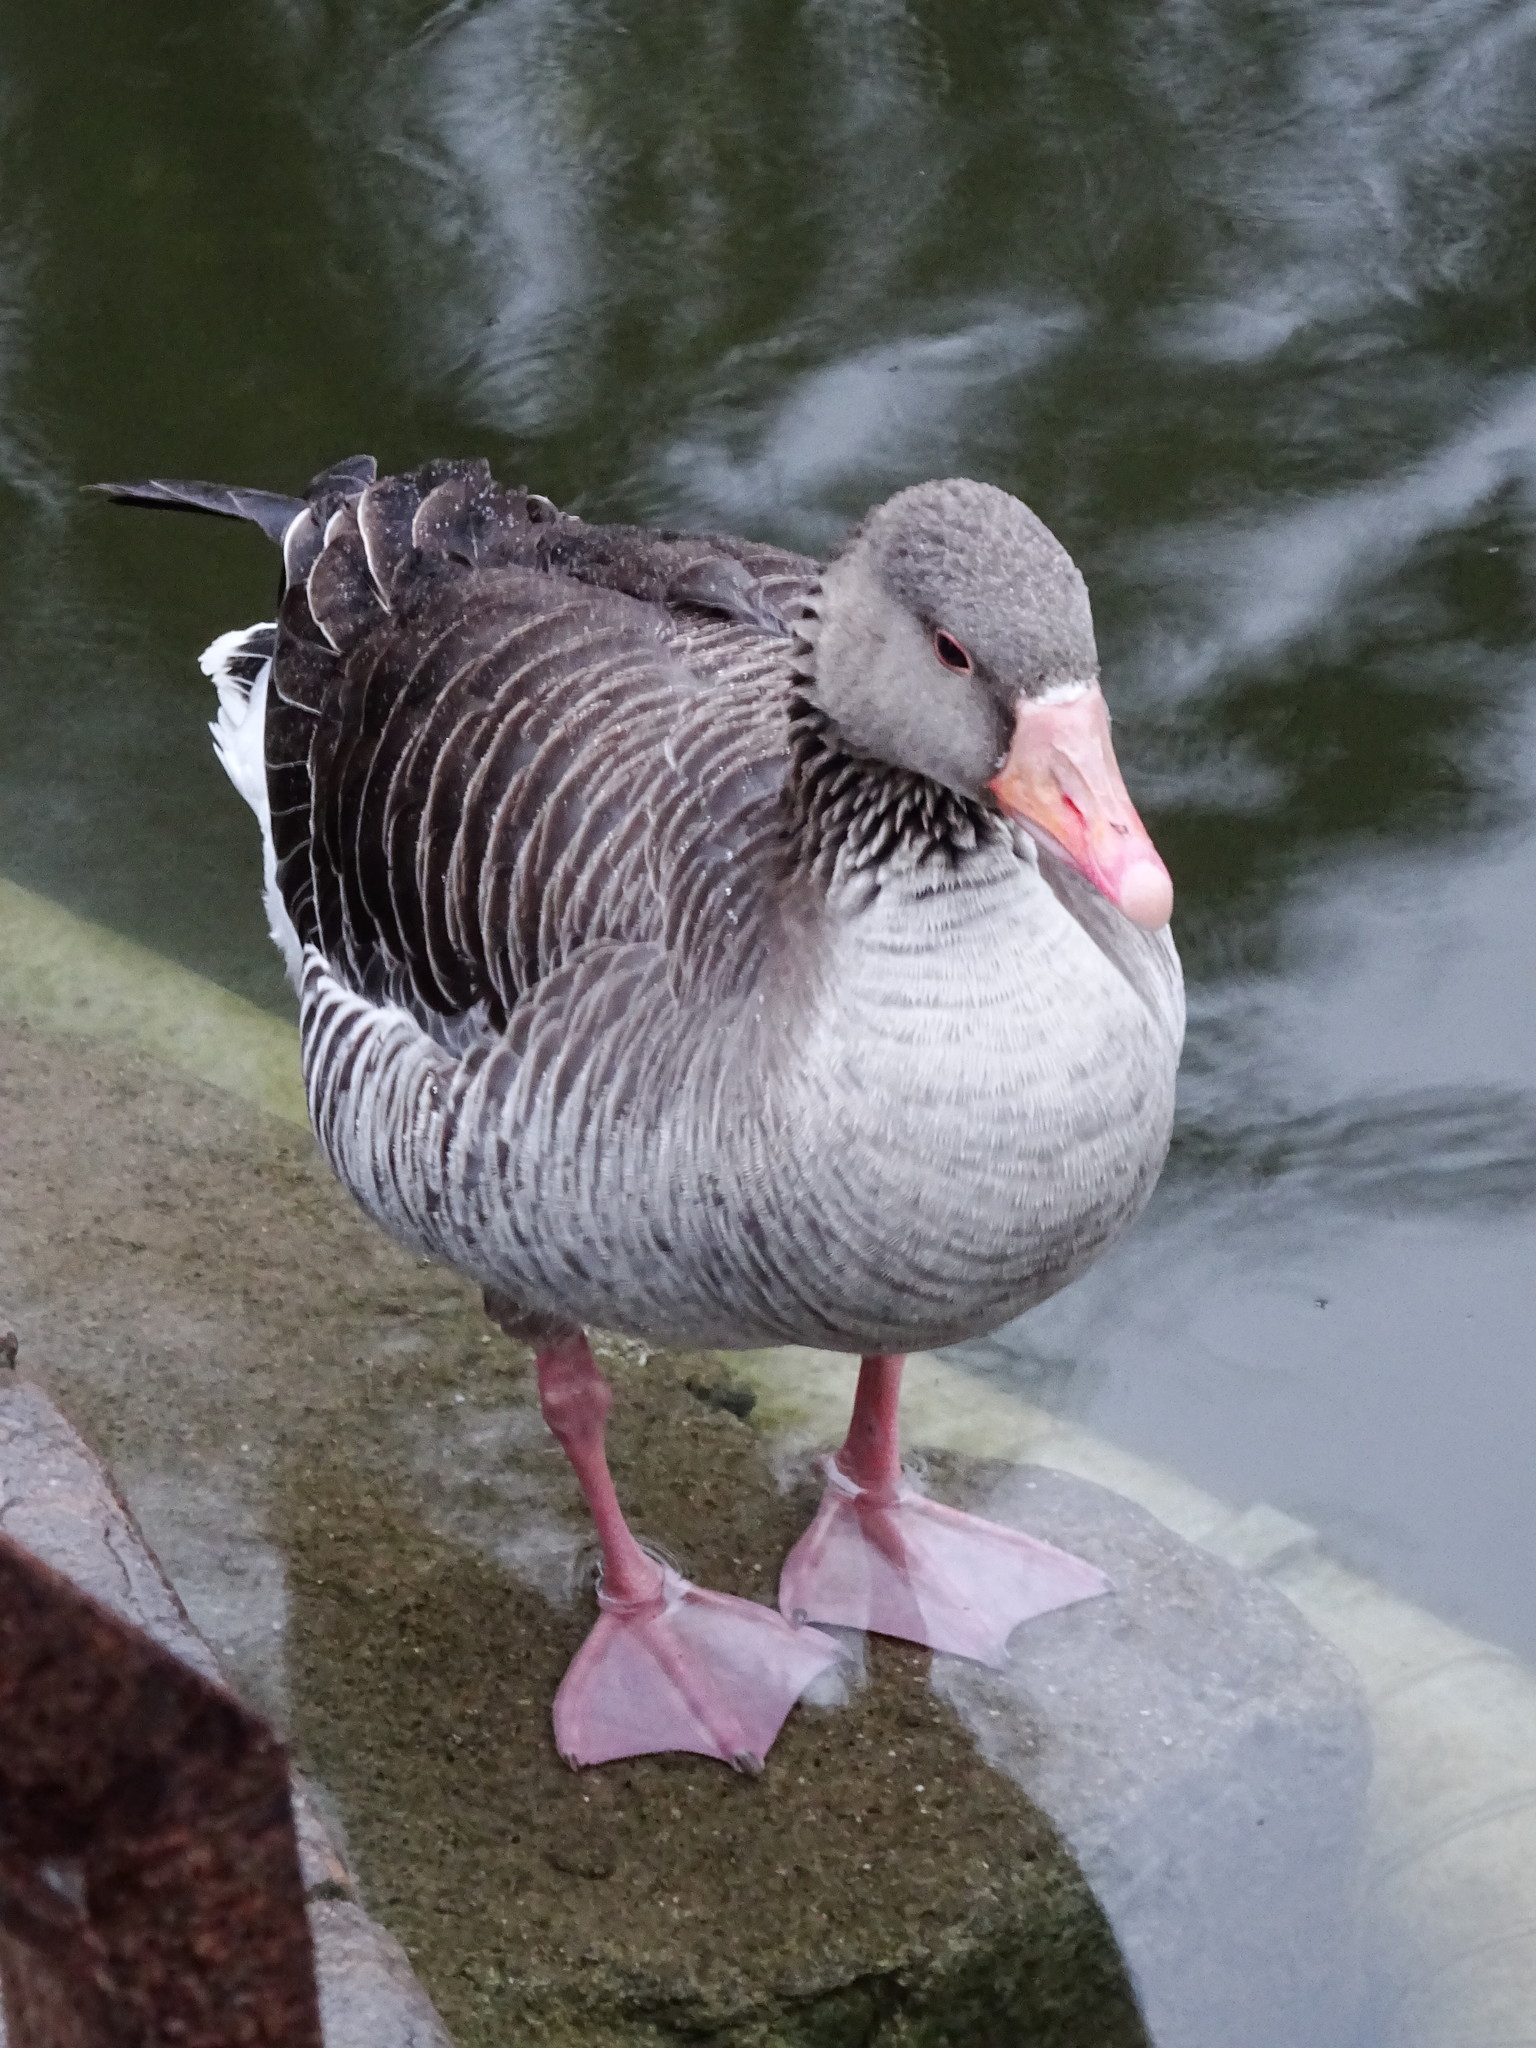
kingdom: Animalia
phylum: Chordata
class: Aves
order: Anseriformes
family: Anatidae
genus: Anser
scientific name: Anser anser
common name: Greylag goose
